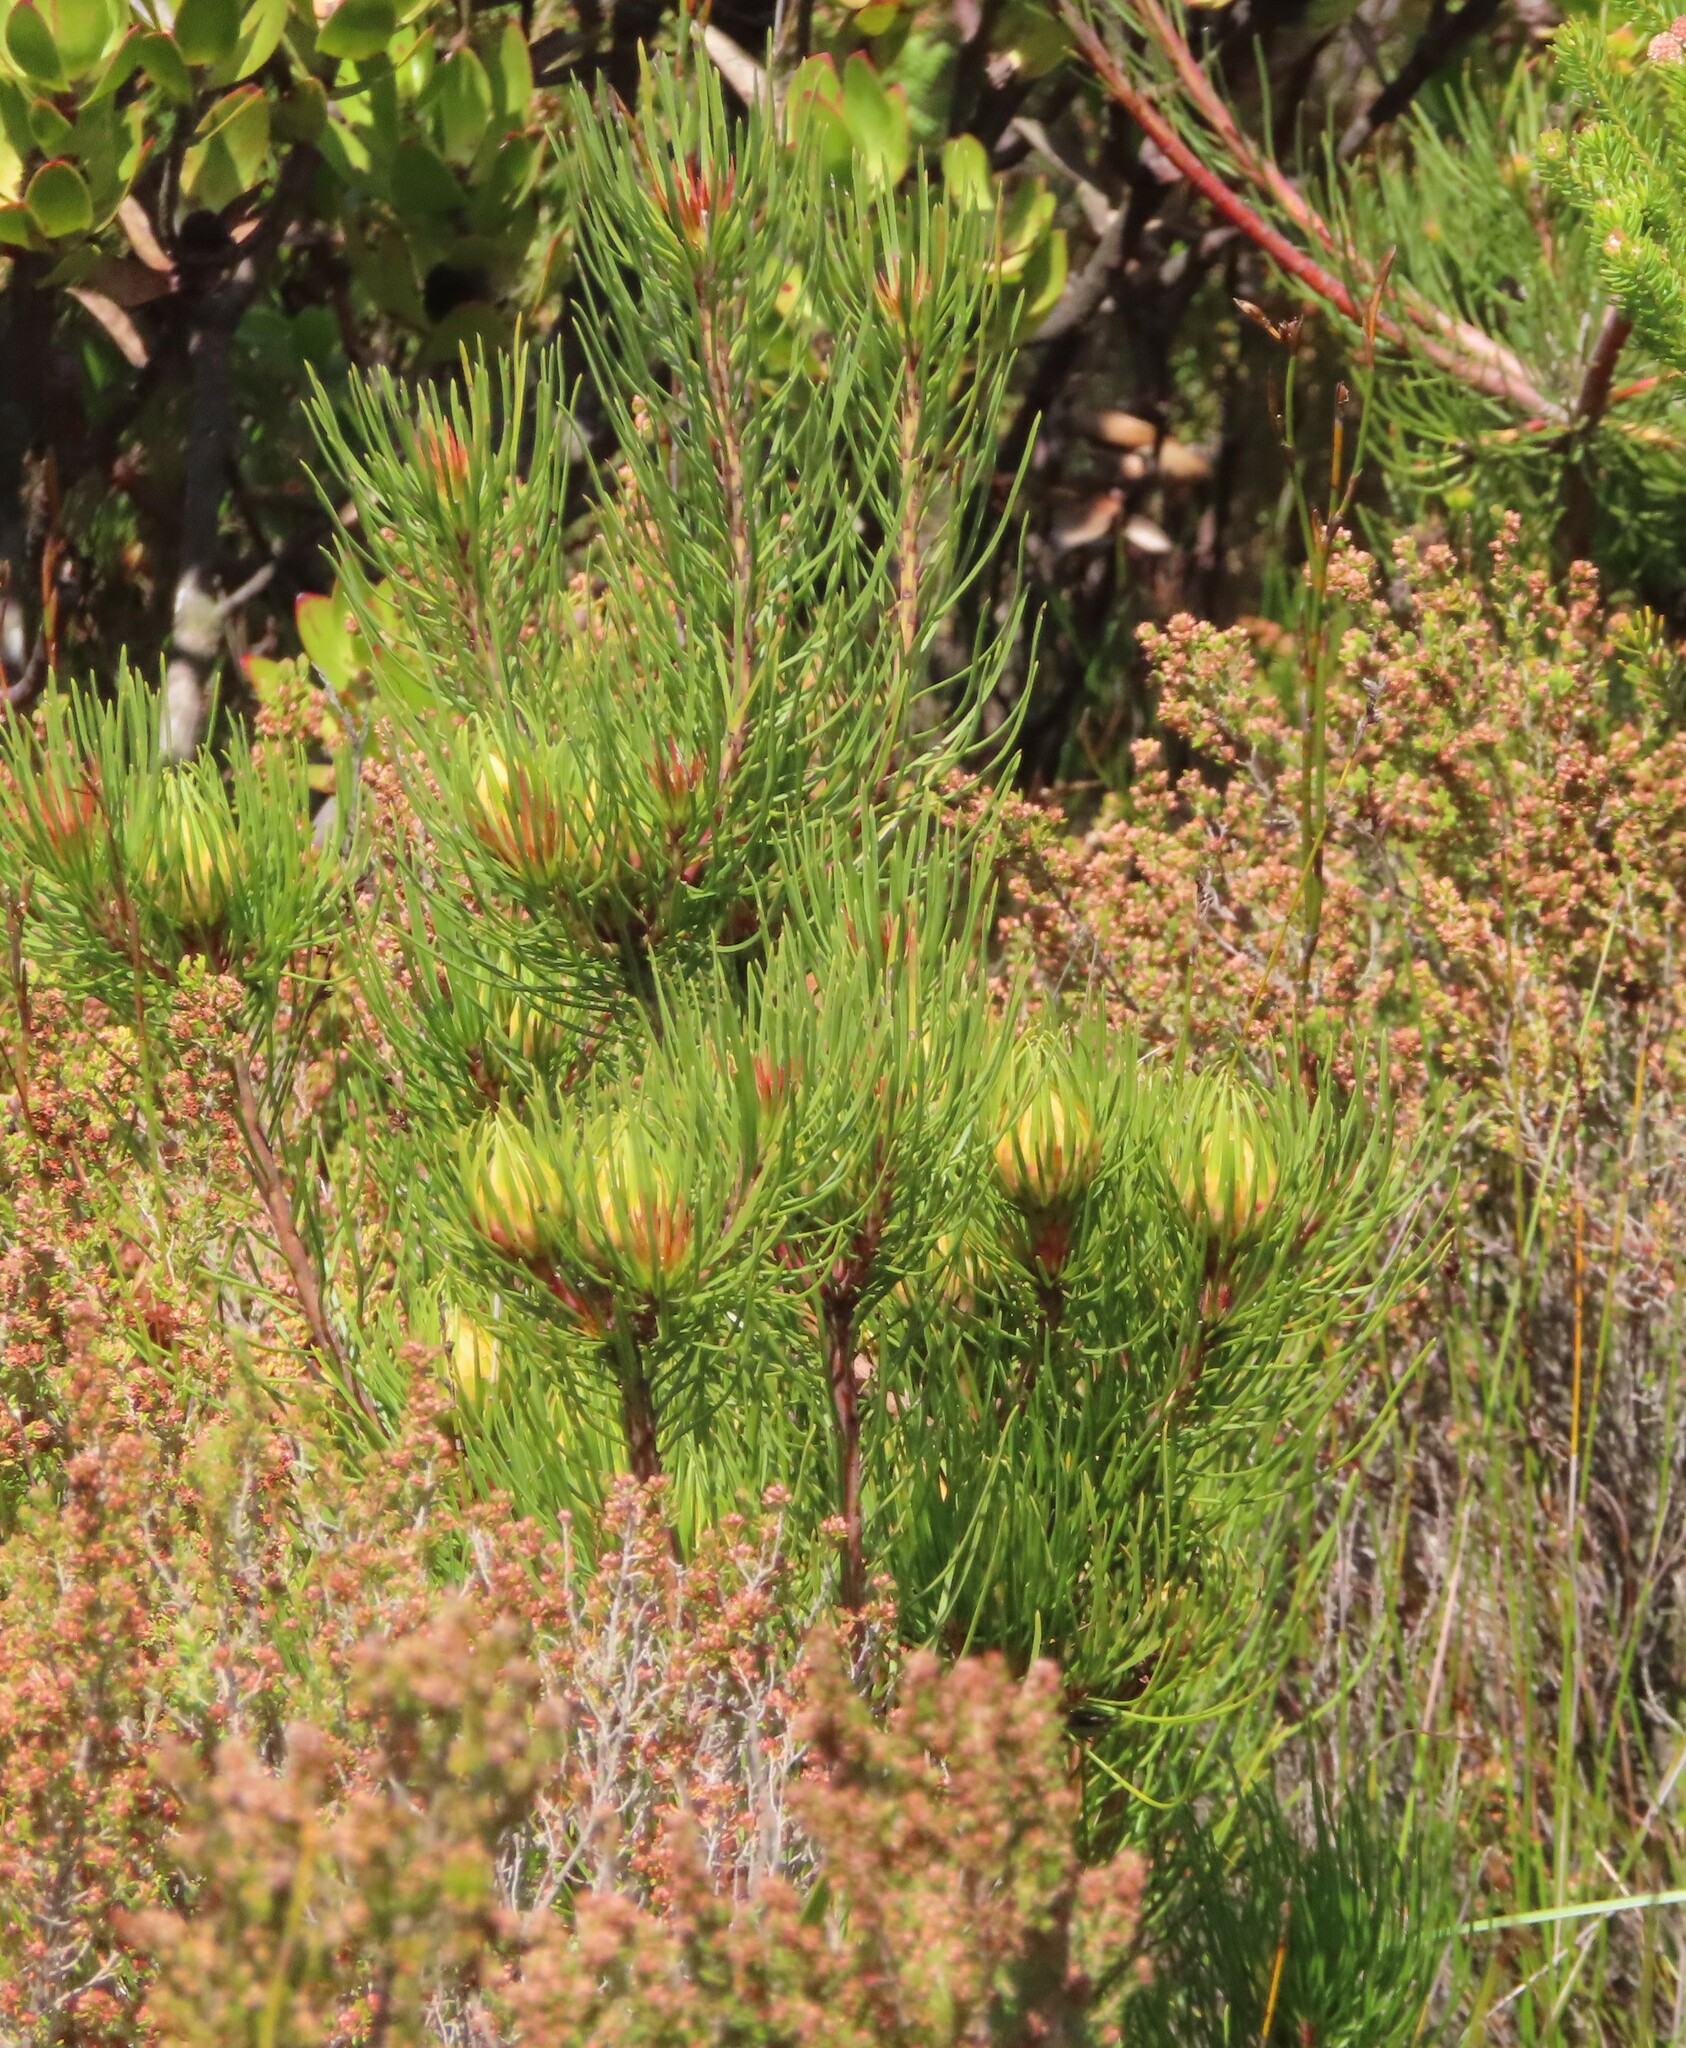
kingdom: Plantae
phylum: Tracheophyta
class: Magnoliopsida
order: Proteales
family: Proteaceae
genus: Aulax
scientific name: Aulax cancellata
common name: Channel-leaf featherbush
